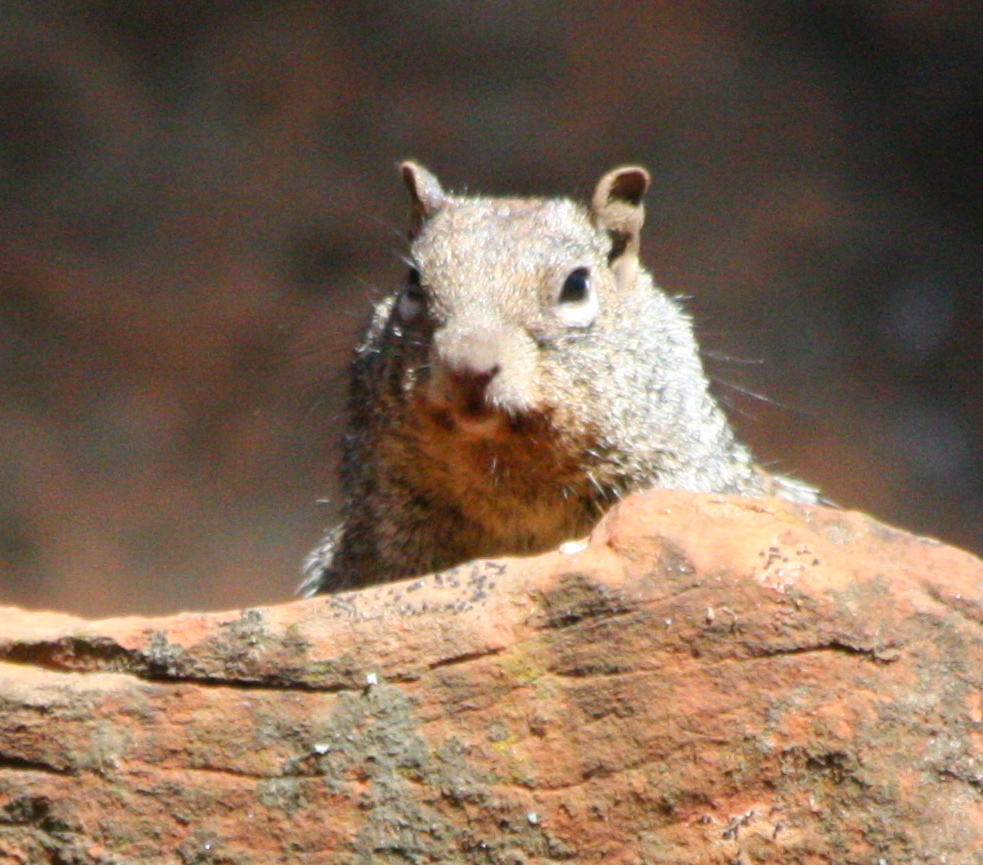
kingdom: Animalia
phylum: Chordata
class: Mammalia
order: Rodentia
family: Sciuridae
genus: Otospermophilus
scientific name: Otospermophilus variegatus
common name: Rock squirrel
